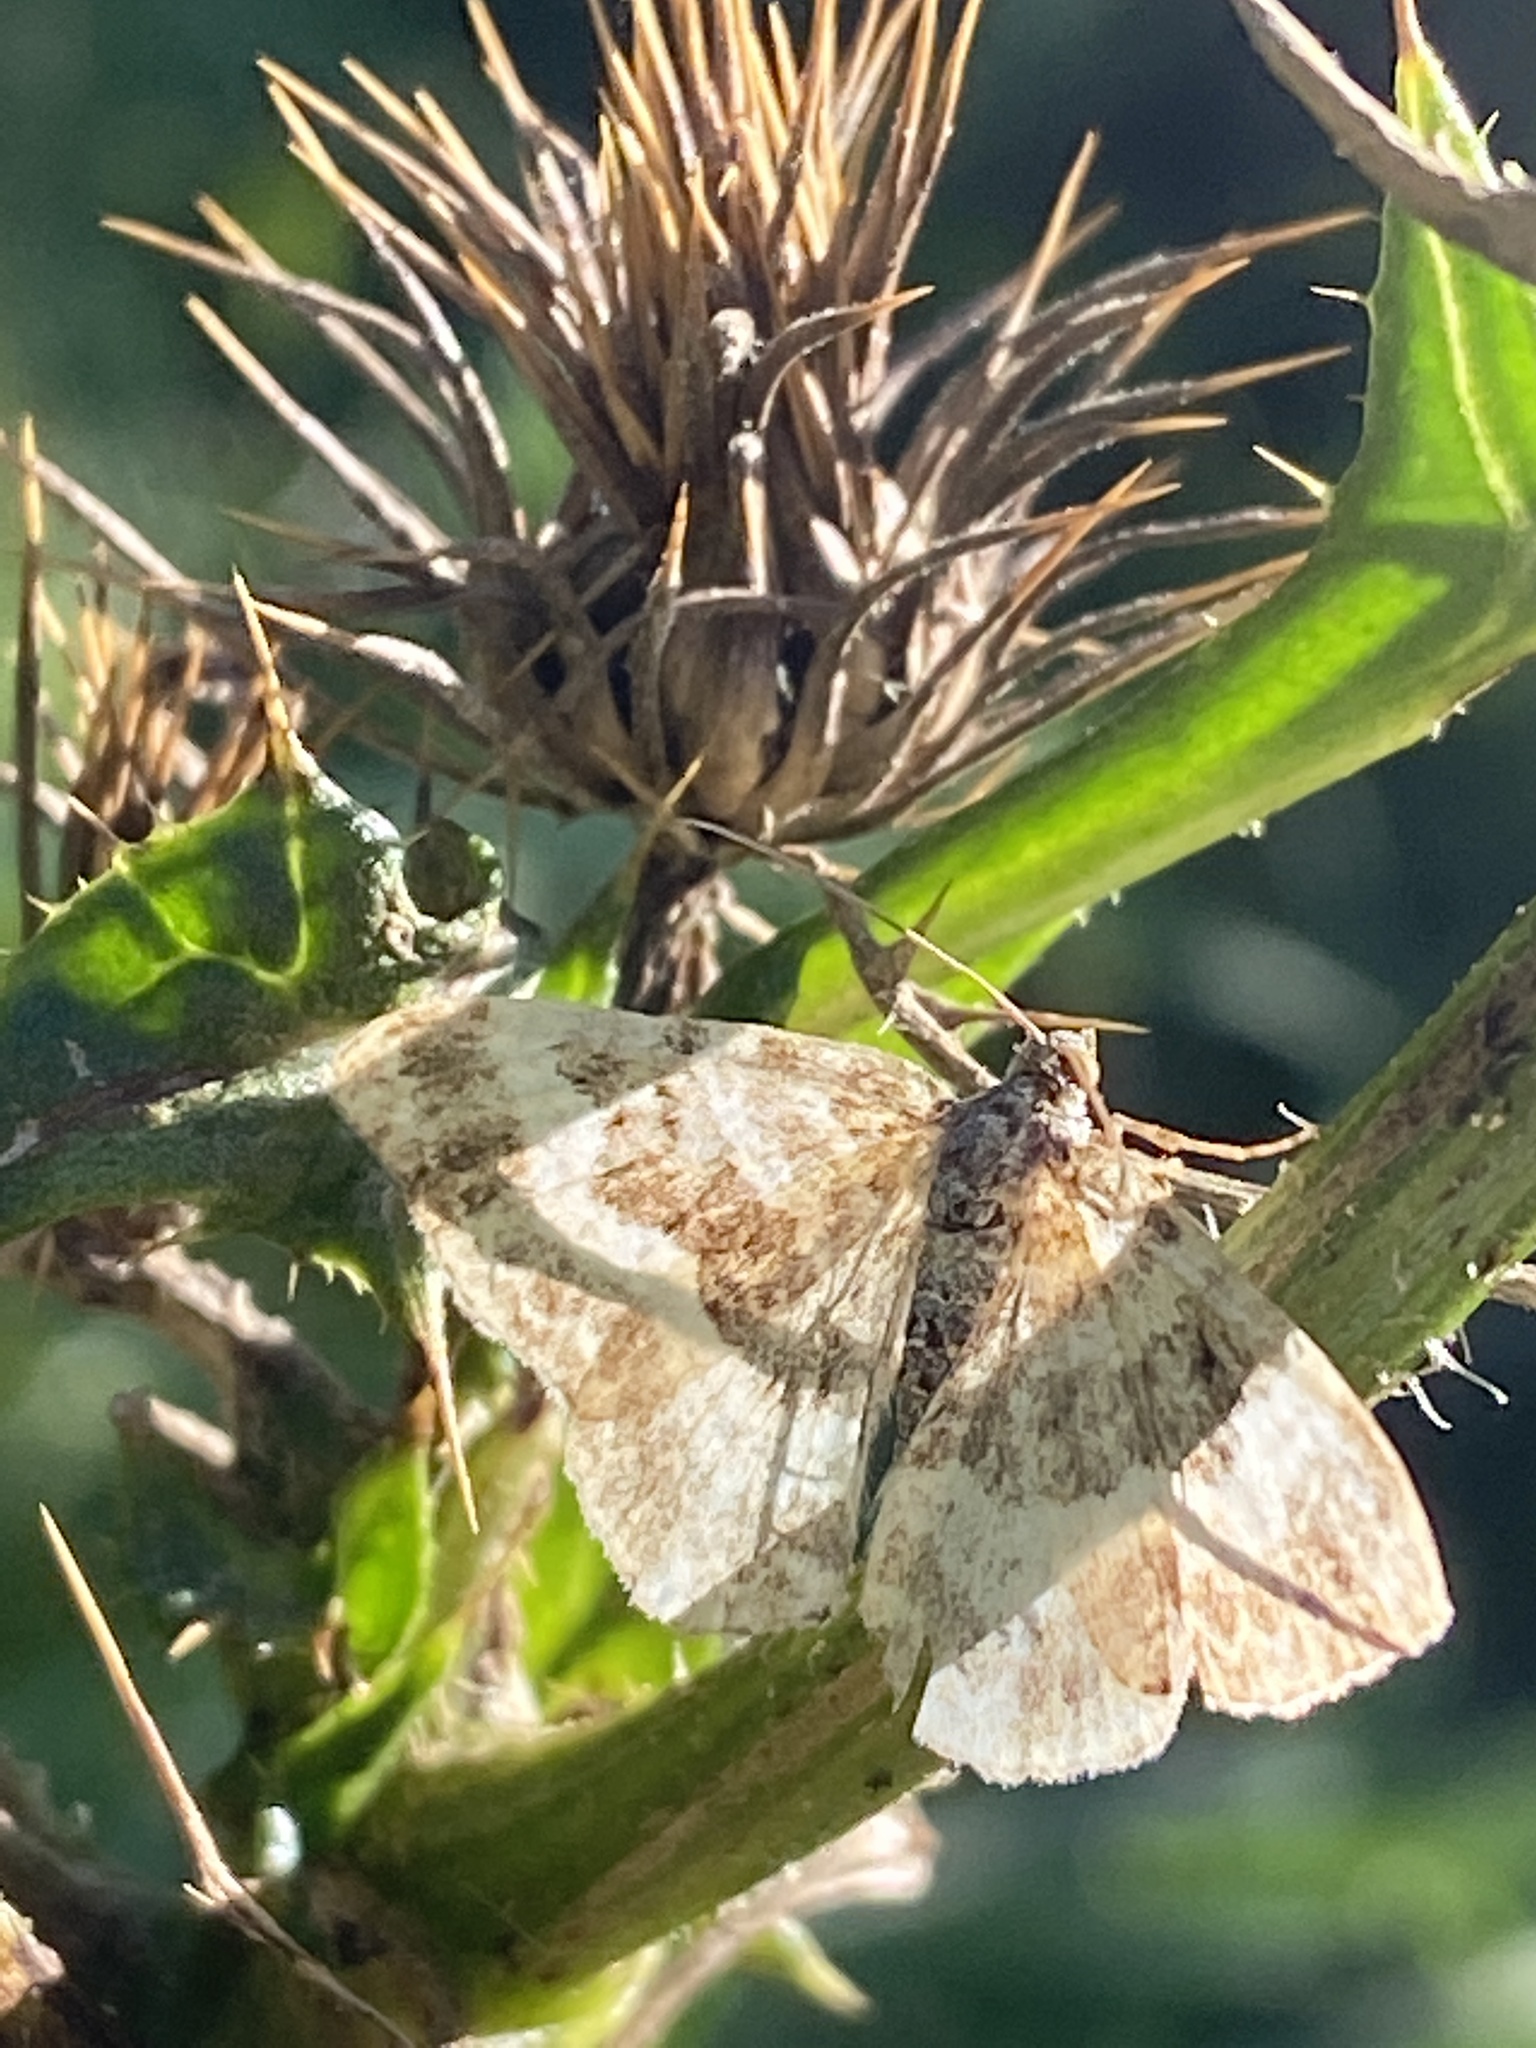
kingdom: Animalia
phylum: Arthropoda
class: Insecta
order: Lepidoptera
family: Geometridae
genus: Epirrhoe
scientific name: Epirrhoe alternata
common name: Common carpet
